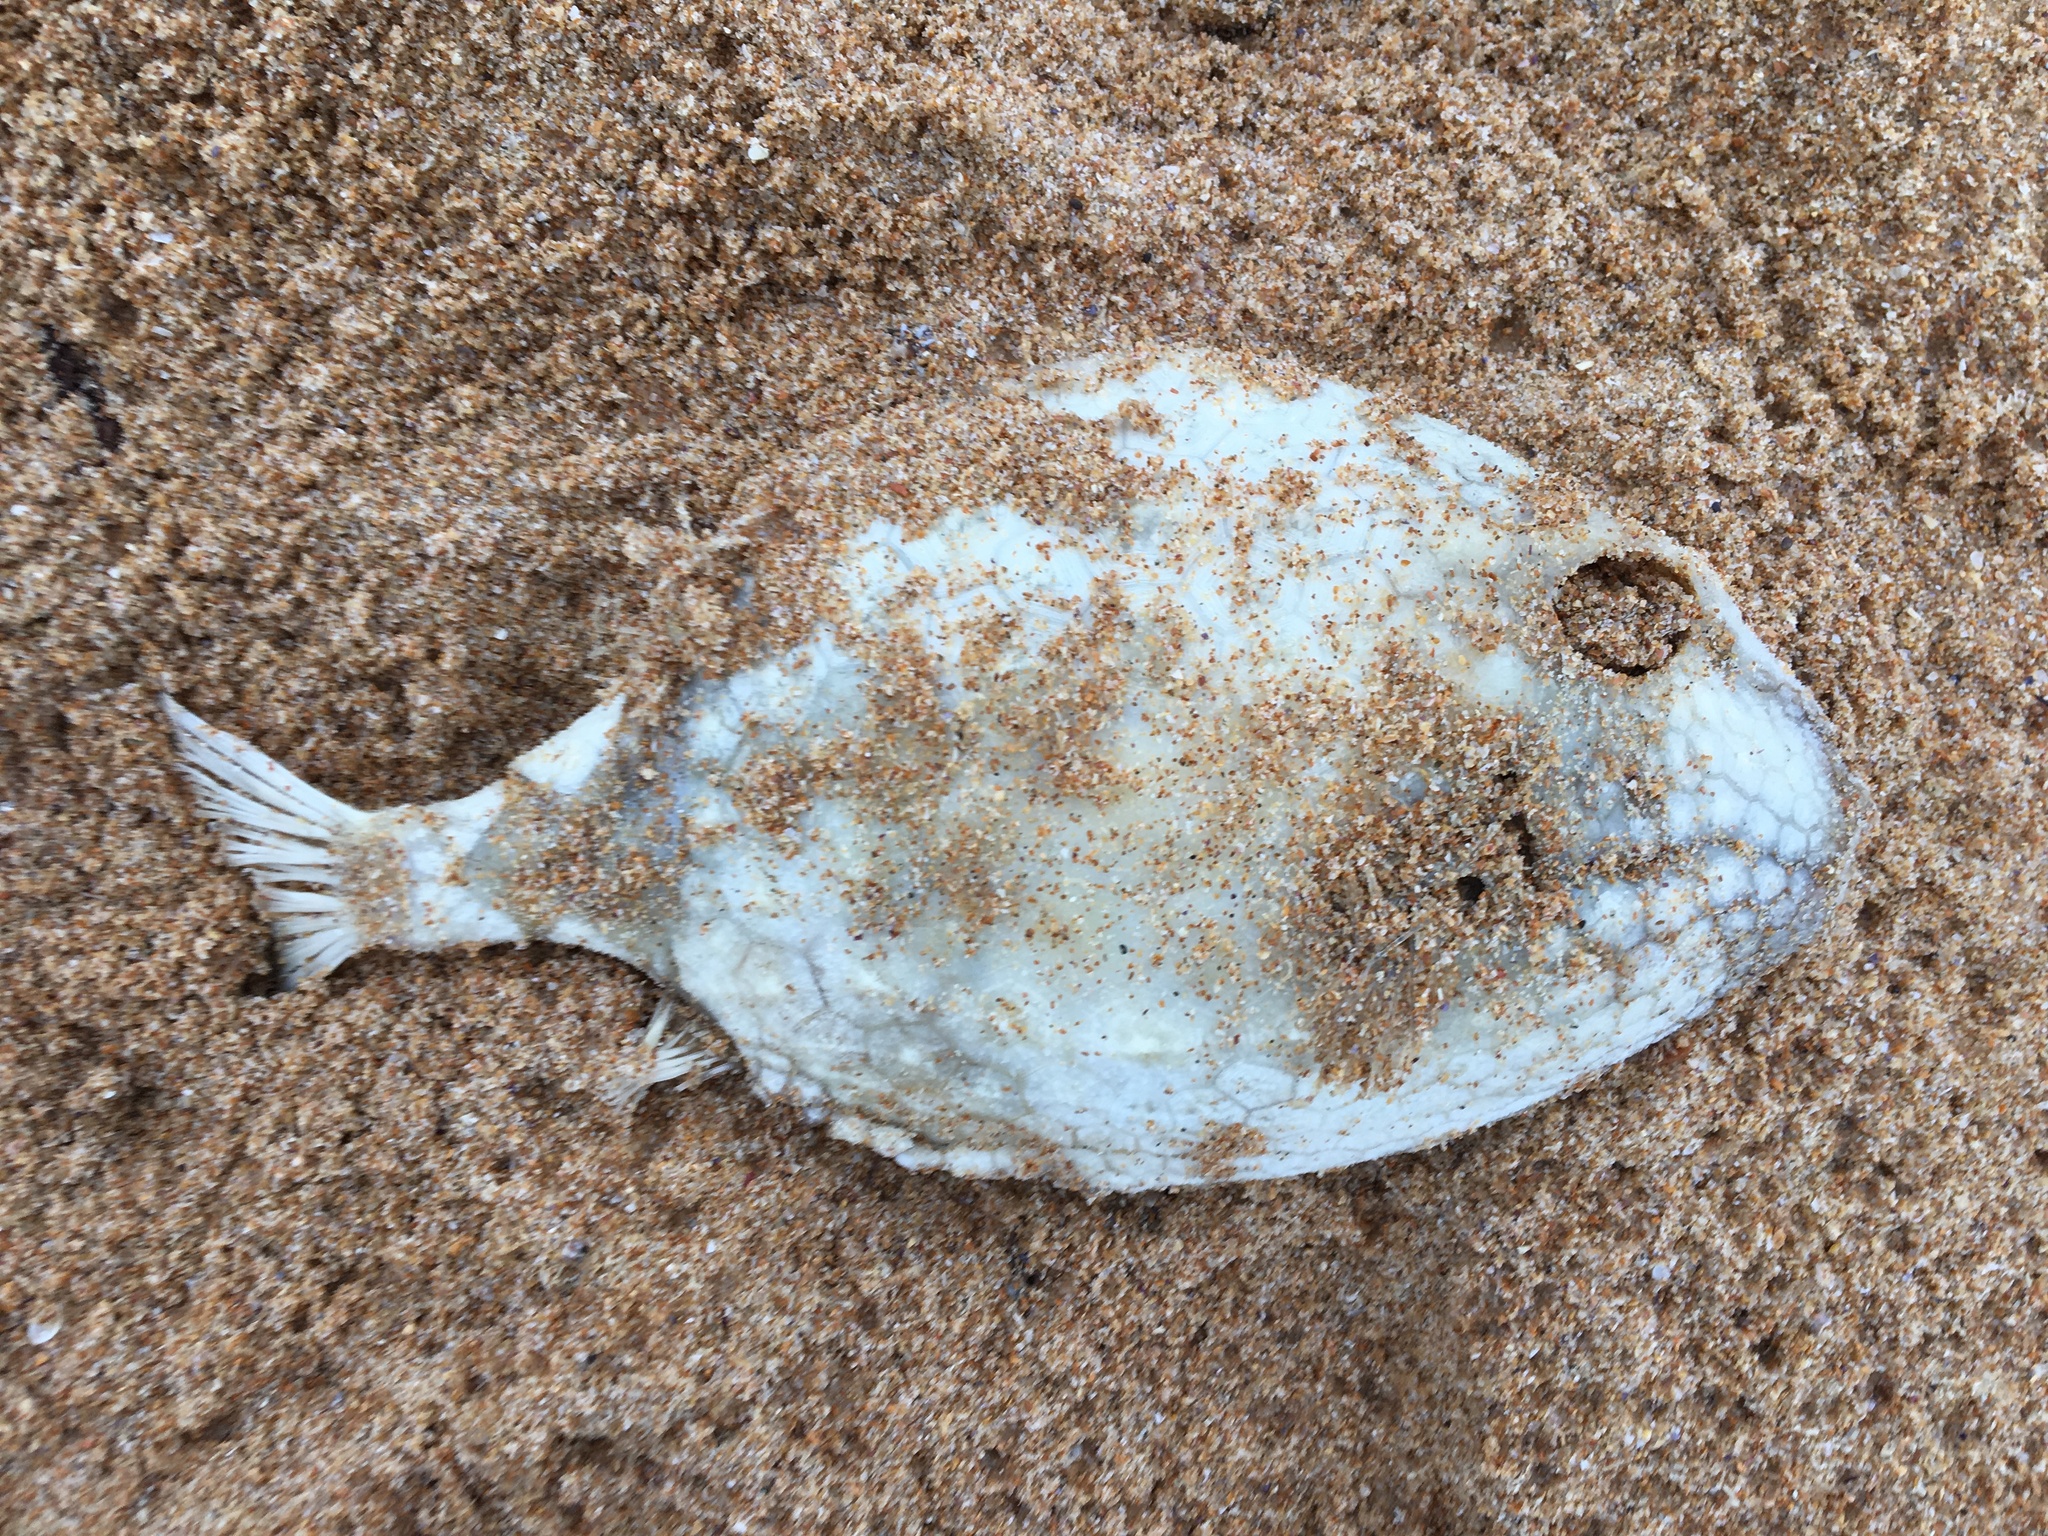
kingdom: Animalia
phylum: Chordata
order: Tetraodontiformes
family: Aracanidae
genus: Anoplocapros
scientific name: Anoplocapros inermis
